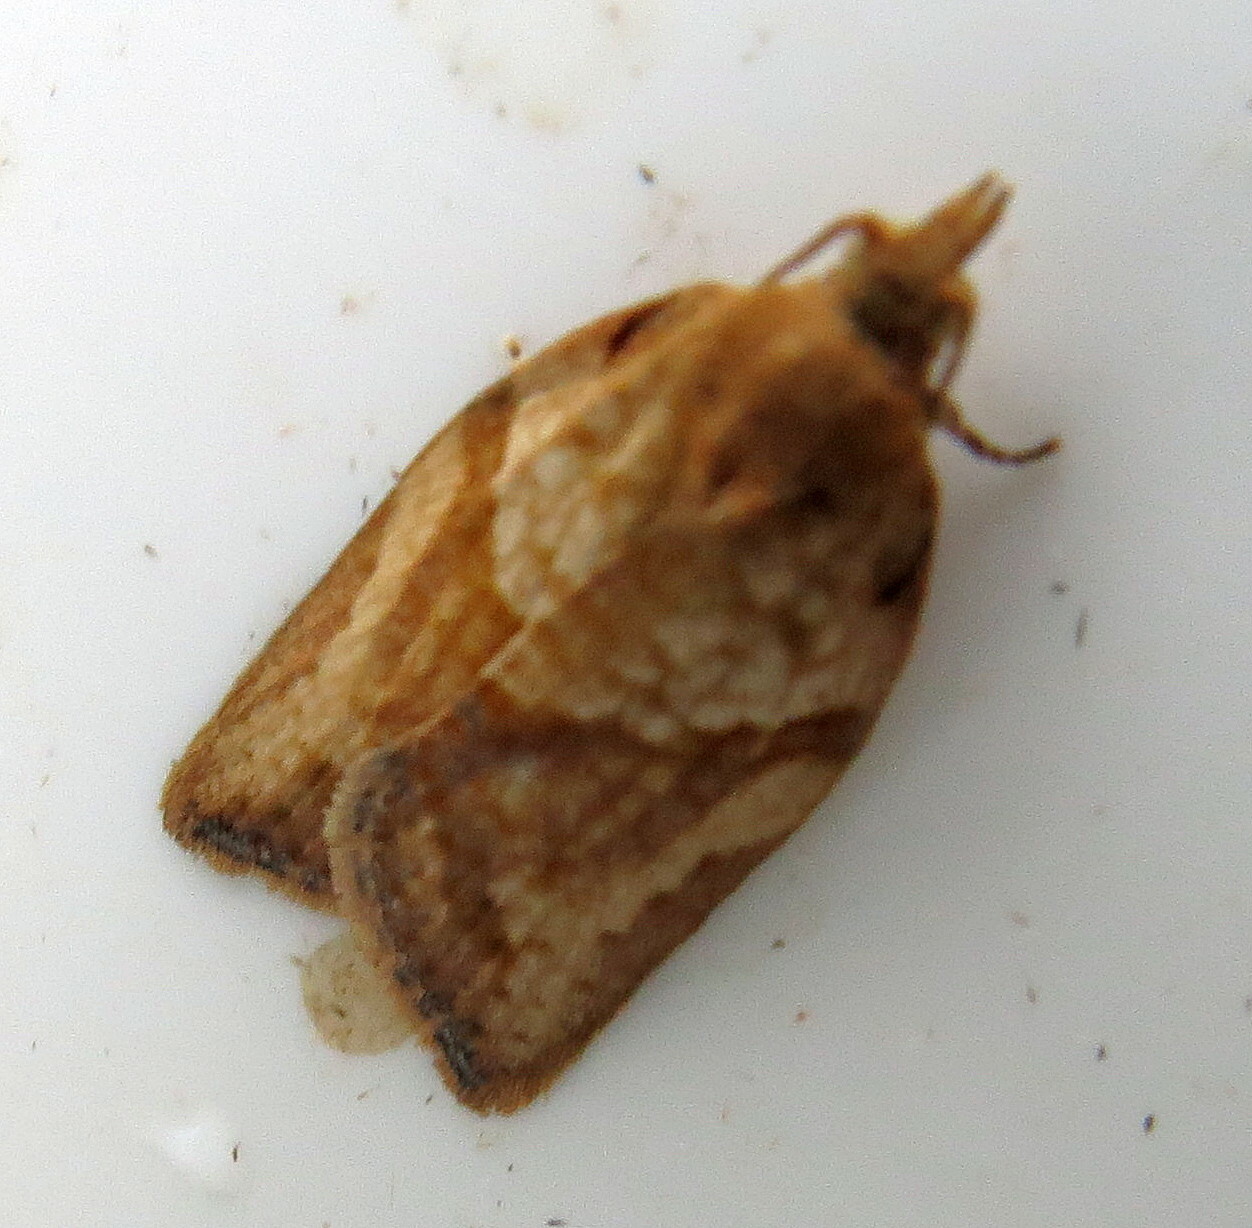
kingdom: Animalia
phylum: Arthropoda
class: Insecta
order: Lepidoptera
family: Tortricidae
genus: Epiphyas
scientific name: Epiphyas postvittana
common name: Light brown apple moth
